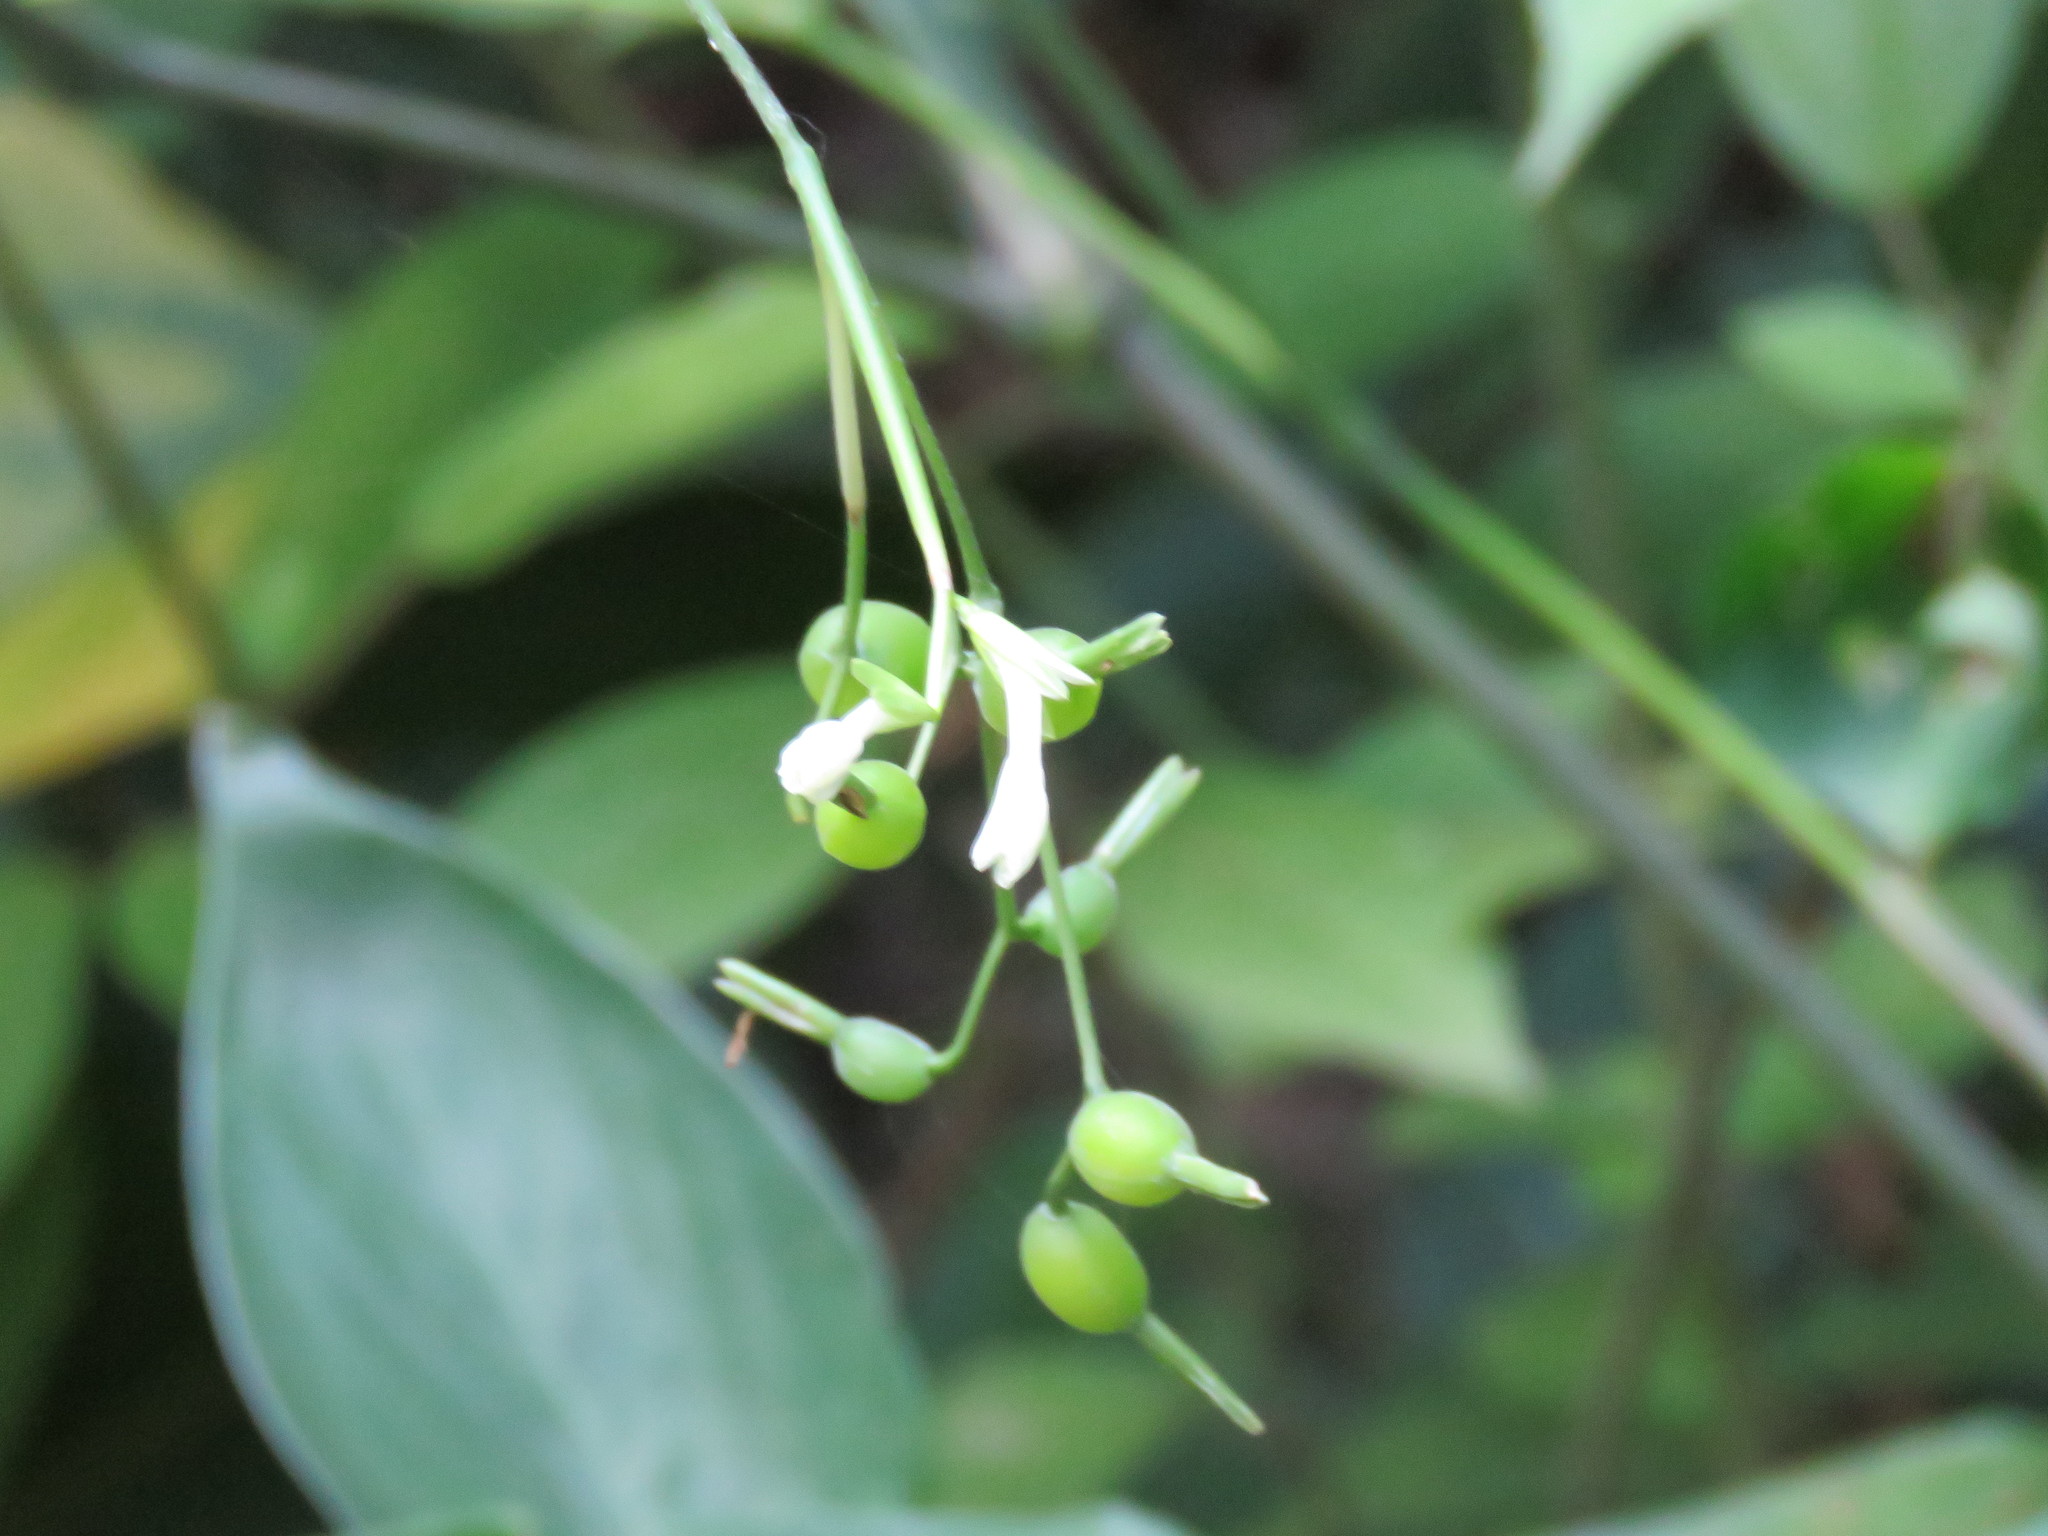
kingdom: Plantae
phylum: Tracheophyta
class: Liliopsida
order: Zingiberales
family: Marantaceae
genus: Maranta
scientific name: Maranta arundinacea
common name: Arrowroot
